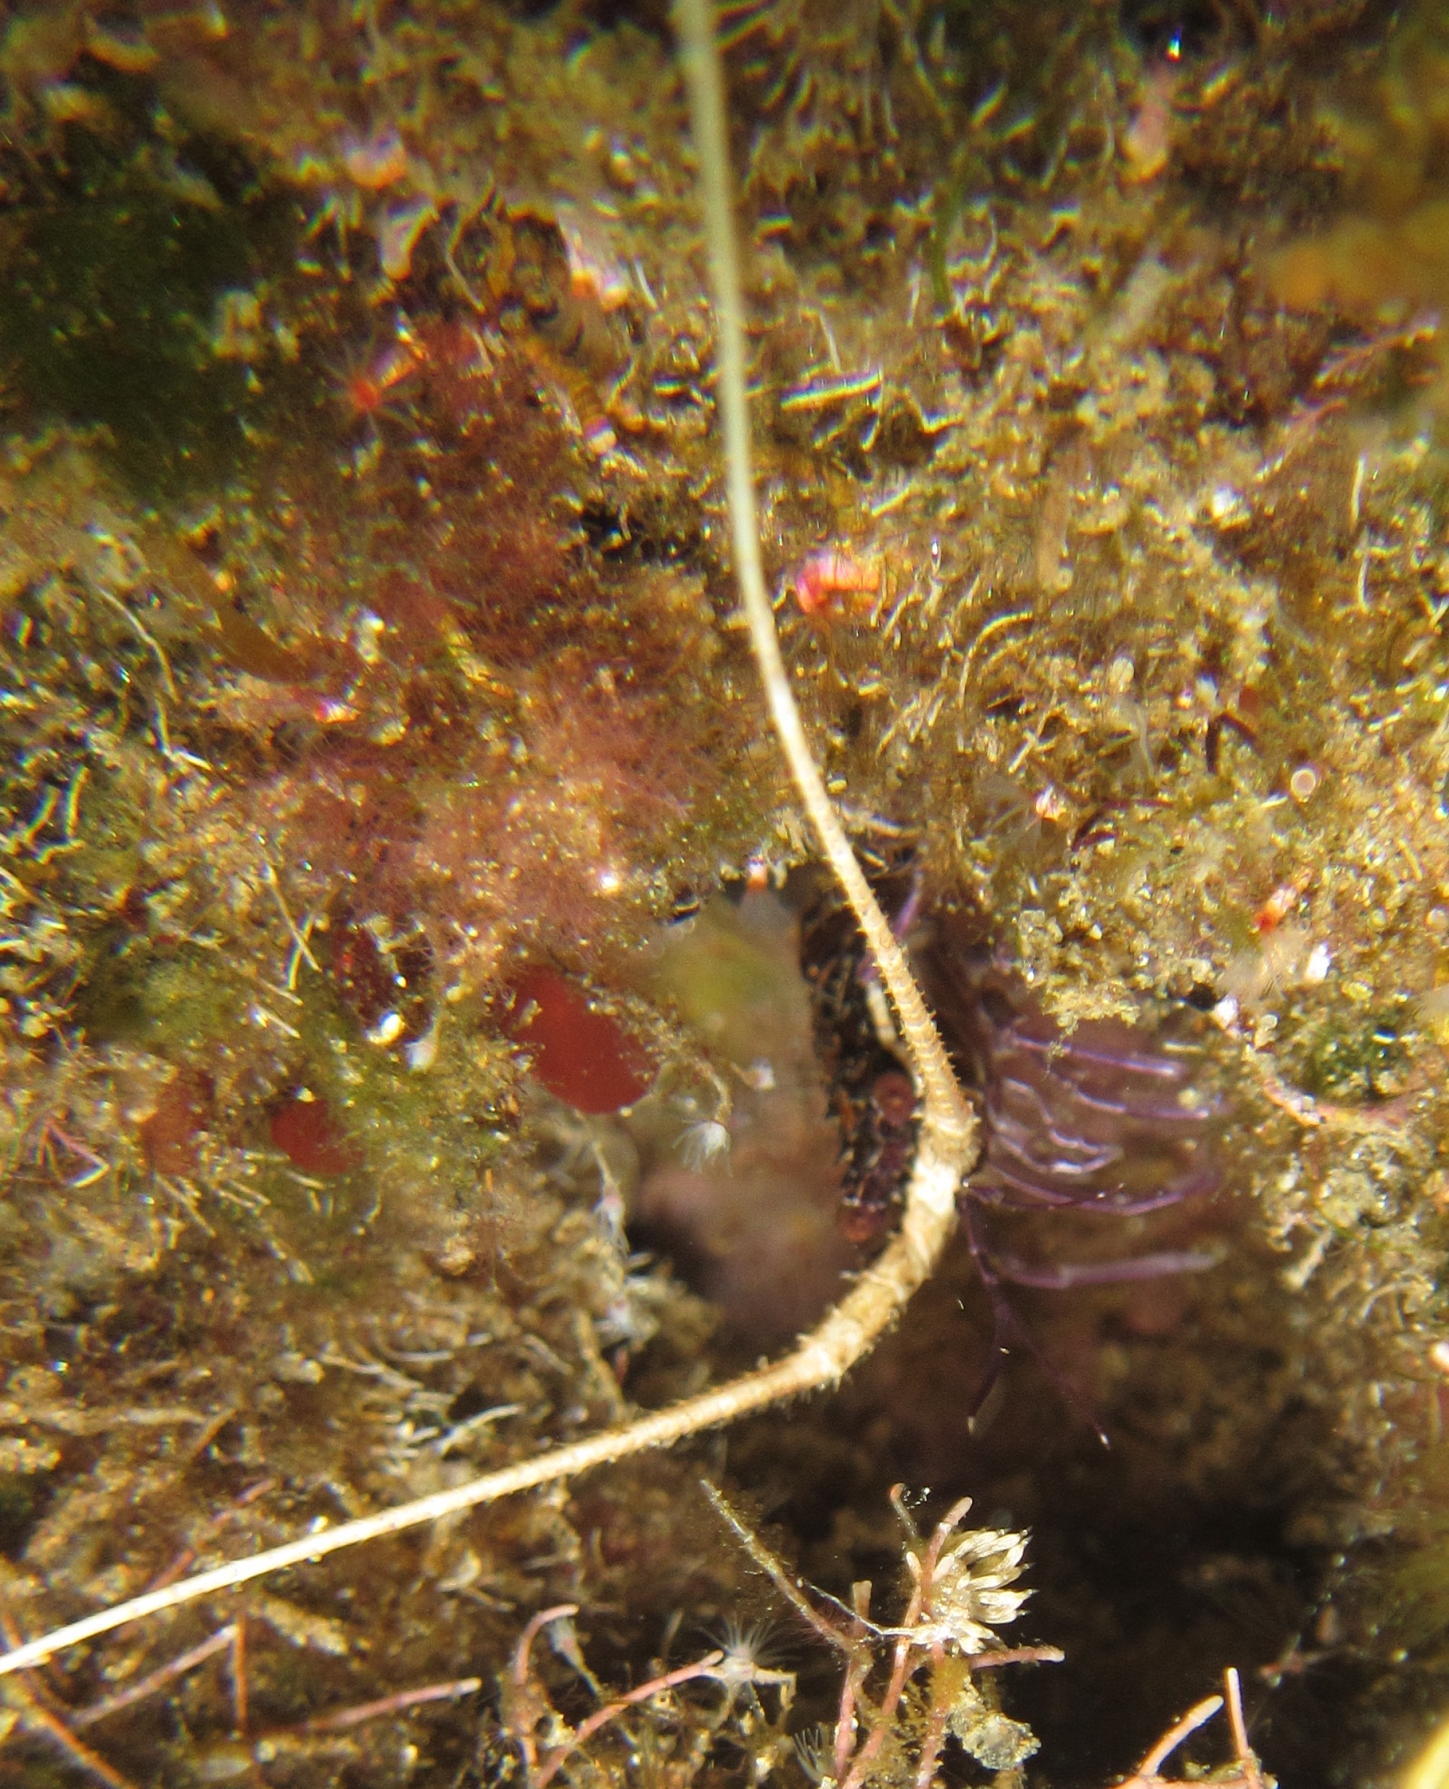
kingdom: Animalia
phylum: Arthropoda
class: Malacostraca
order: Decapoda
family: Palinuridae
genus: Panulirus
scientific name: Panulirus versicolor
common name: Painted spiny lobster
